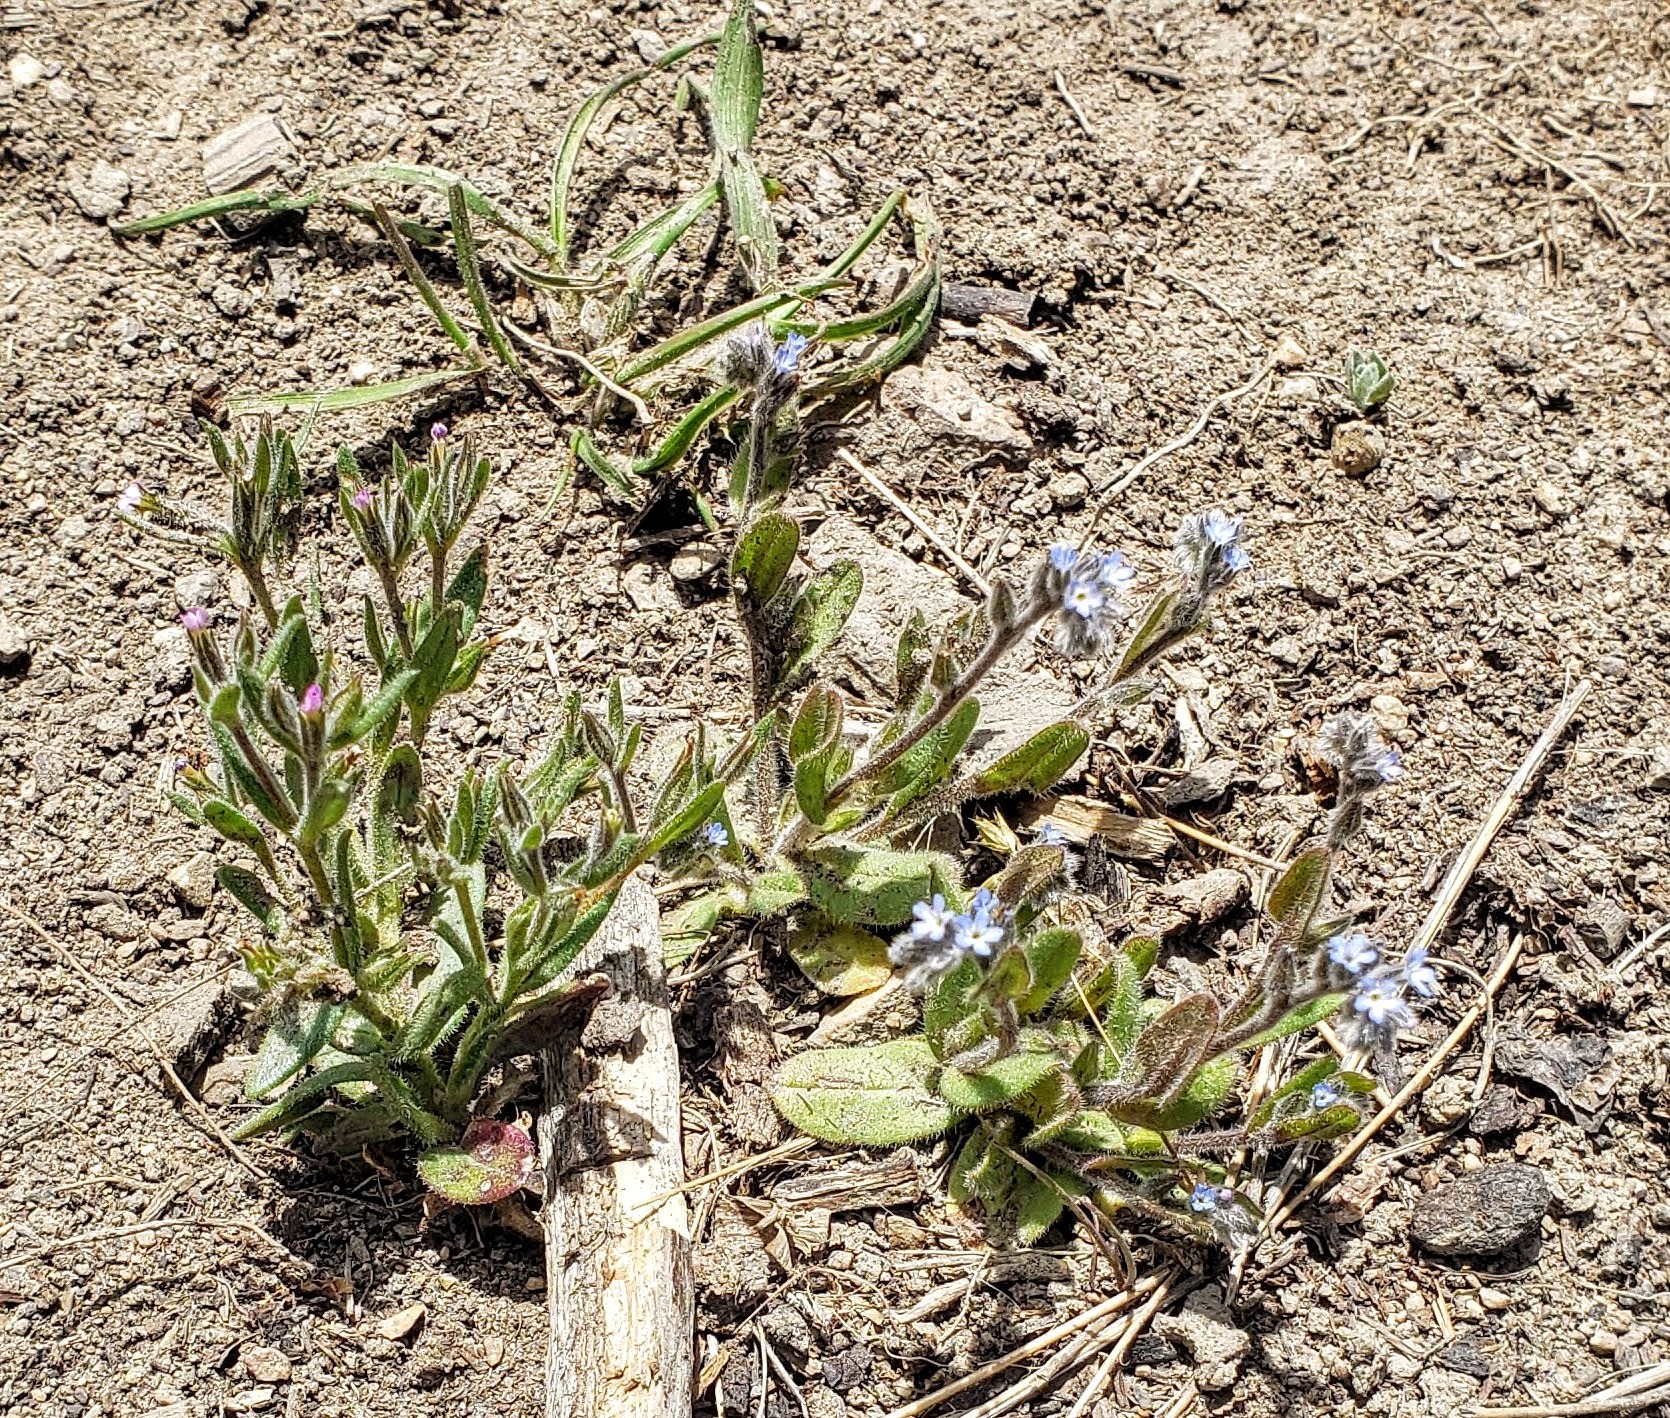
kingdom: Plantae
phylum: Tracheophyta
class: Magnoliopsida
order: Boraginales
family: Boraginaceae
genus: Myosotis
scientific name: Myosotis stricta
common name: Strict forget-me-not
